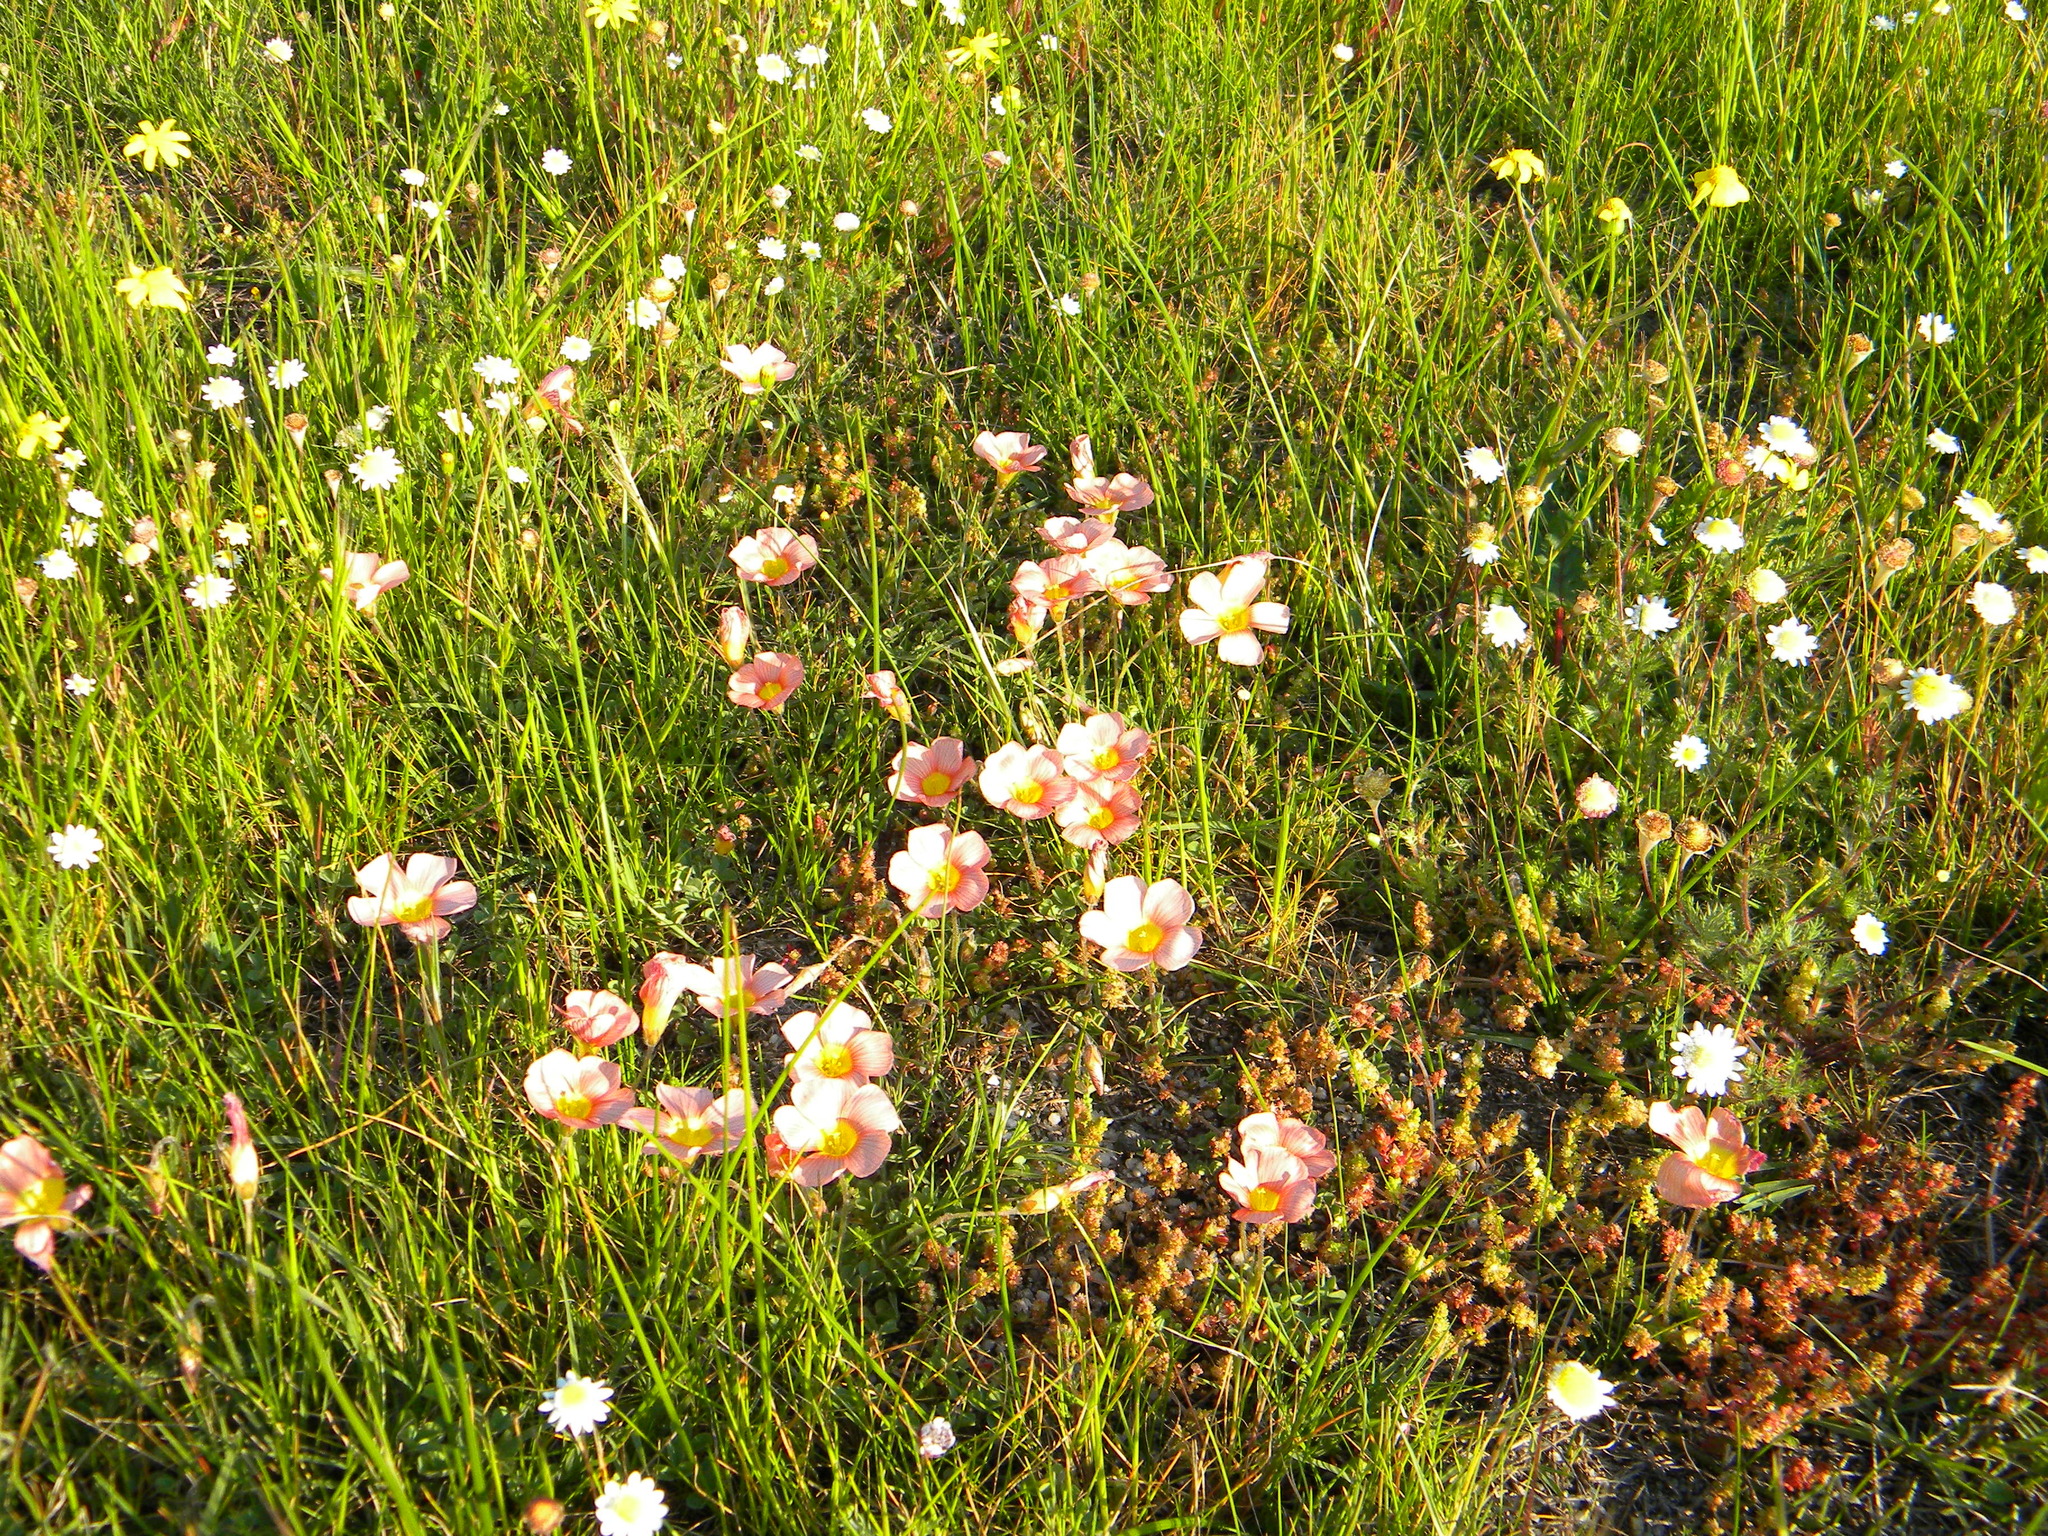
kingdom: Plantae
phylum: Tracheophyta
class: Magnoliopsida
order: Oxalidales
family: Oxalidaceae
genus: Oxalis
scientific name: Oxalis obtusa
